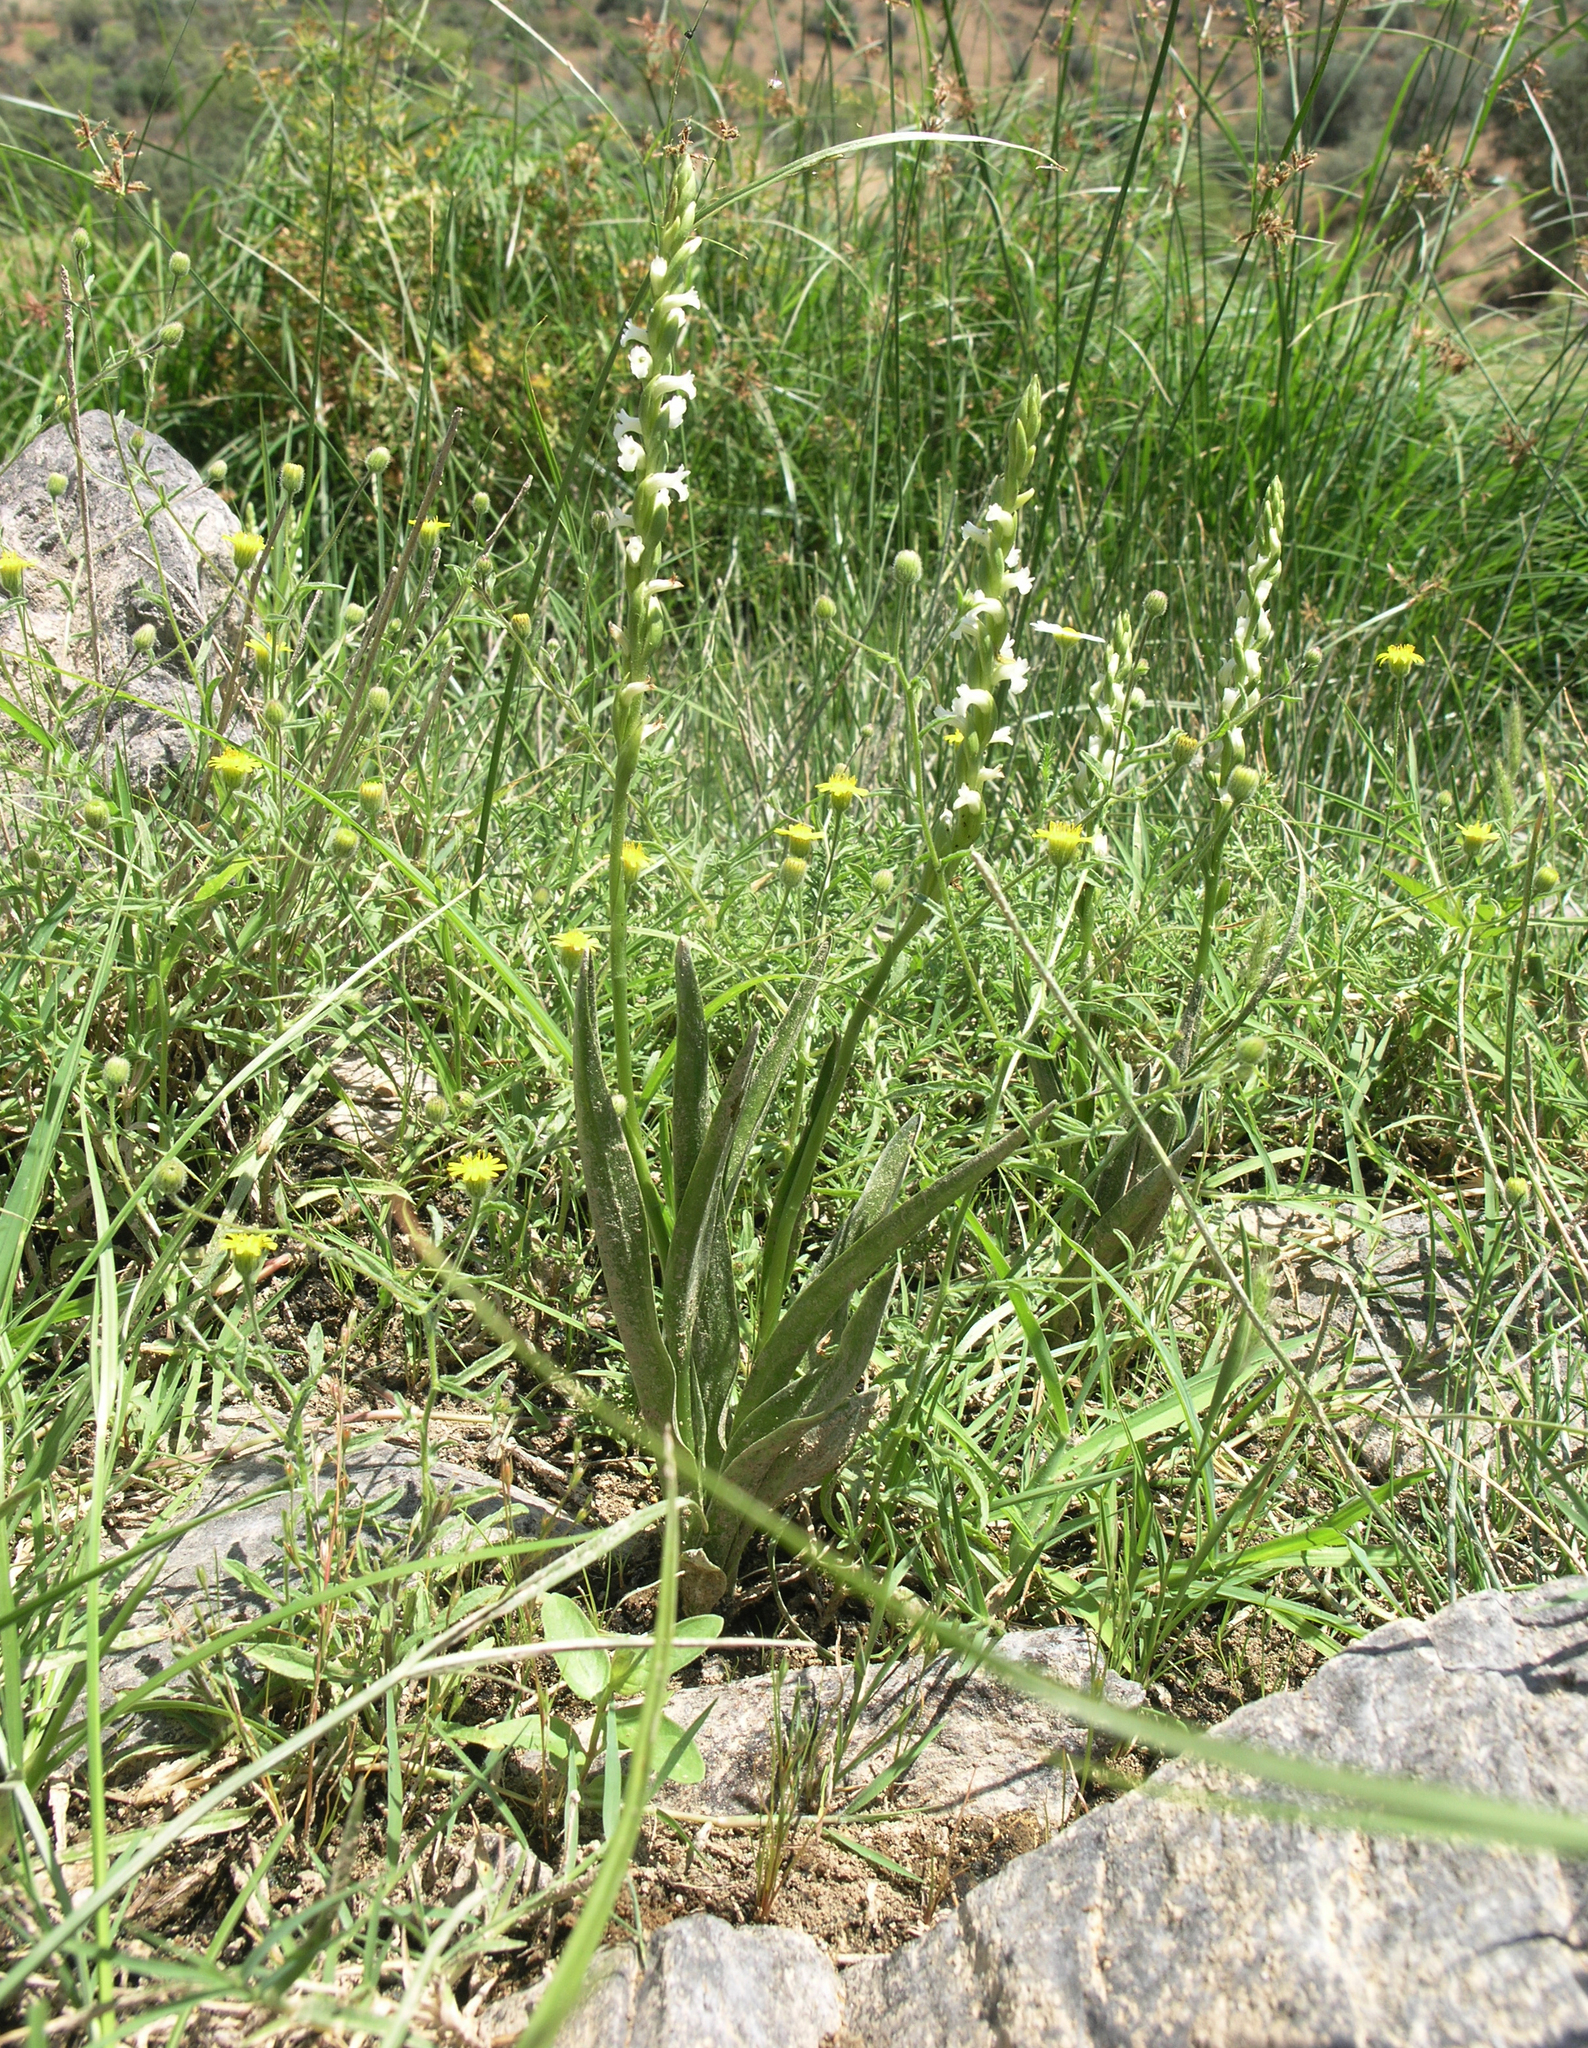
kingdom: Plantae
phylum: Tracheophyta
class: Liliopsida
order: Asparagales
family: Orchidaceae
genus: Spiranthes
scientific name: Spiranthes aestivalis
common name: Summer lady's-tresses
